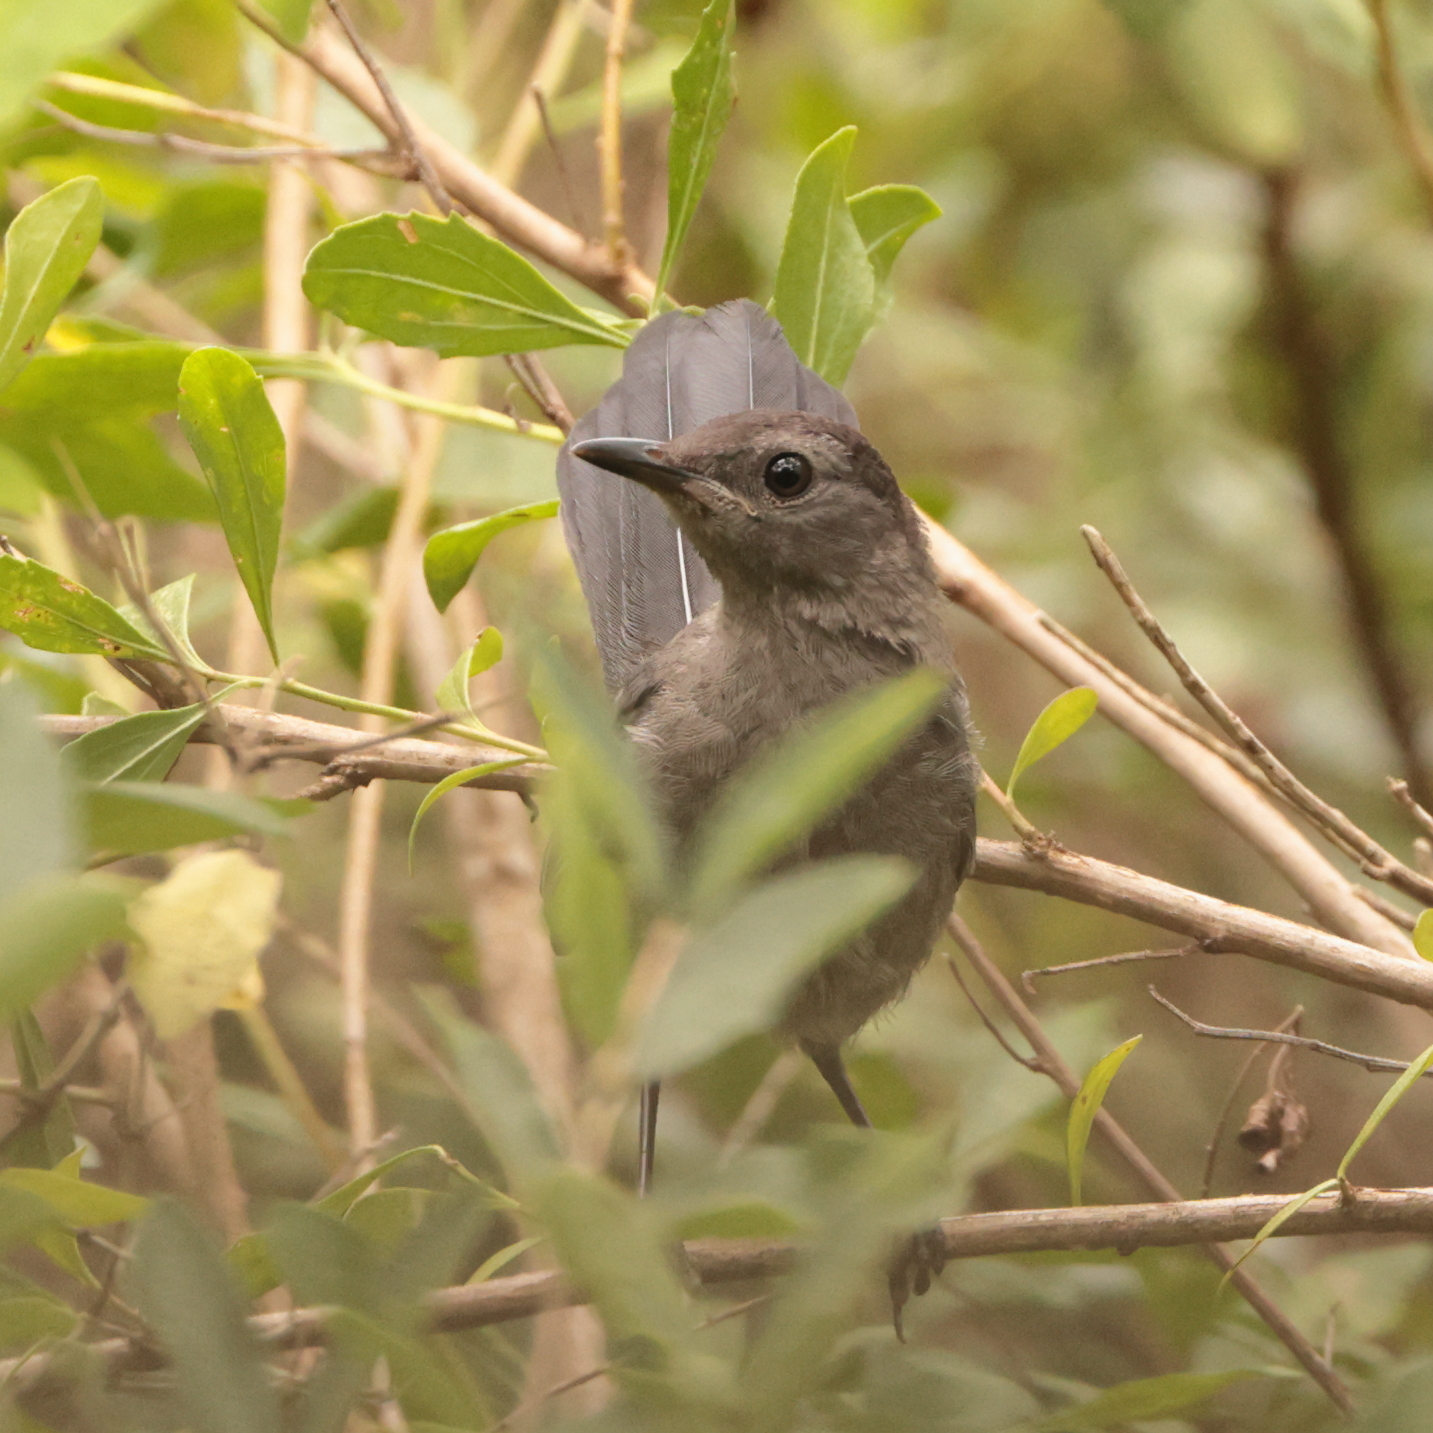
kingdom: Animalia
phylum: Chordata
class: Aves
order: Passeriformes
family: Mimidae
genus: Dumetella
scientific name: Dumetella carolinensis
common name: Gray catbird
